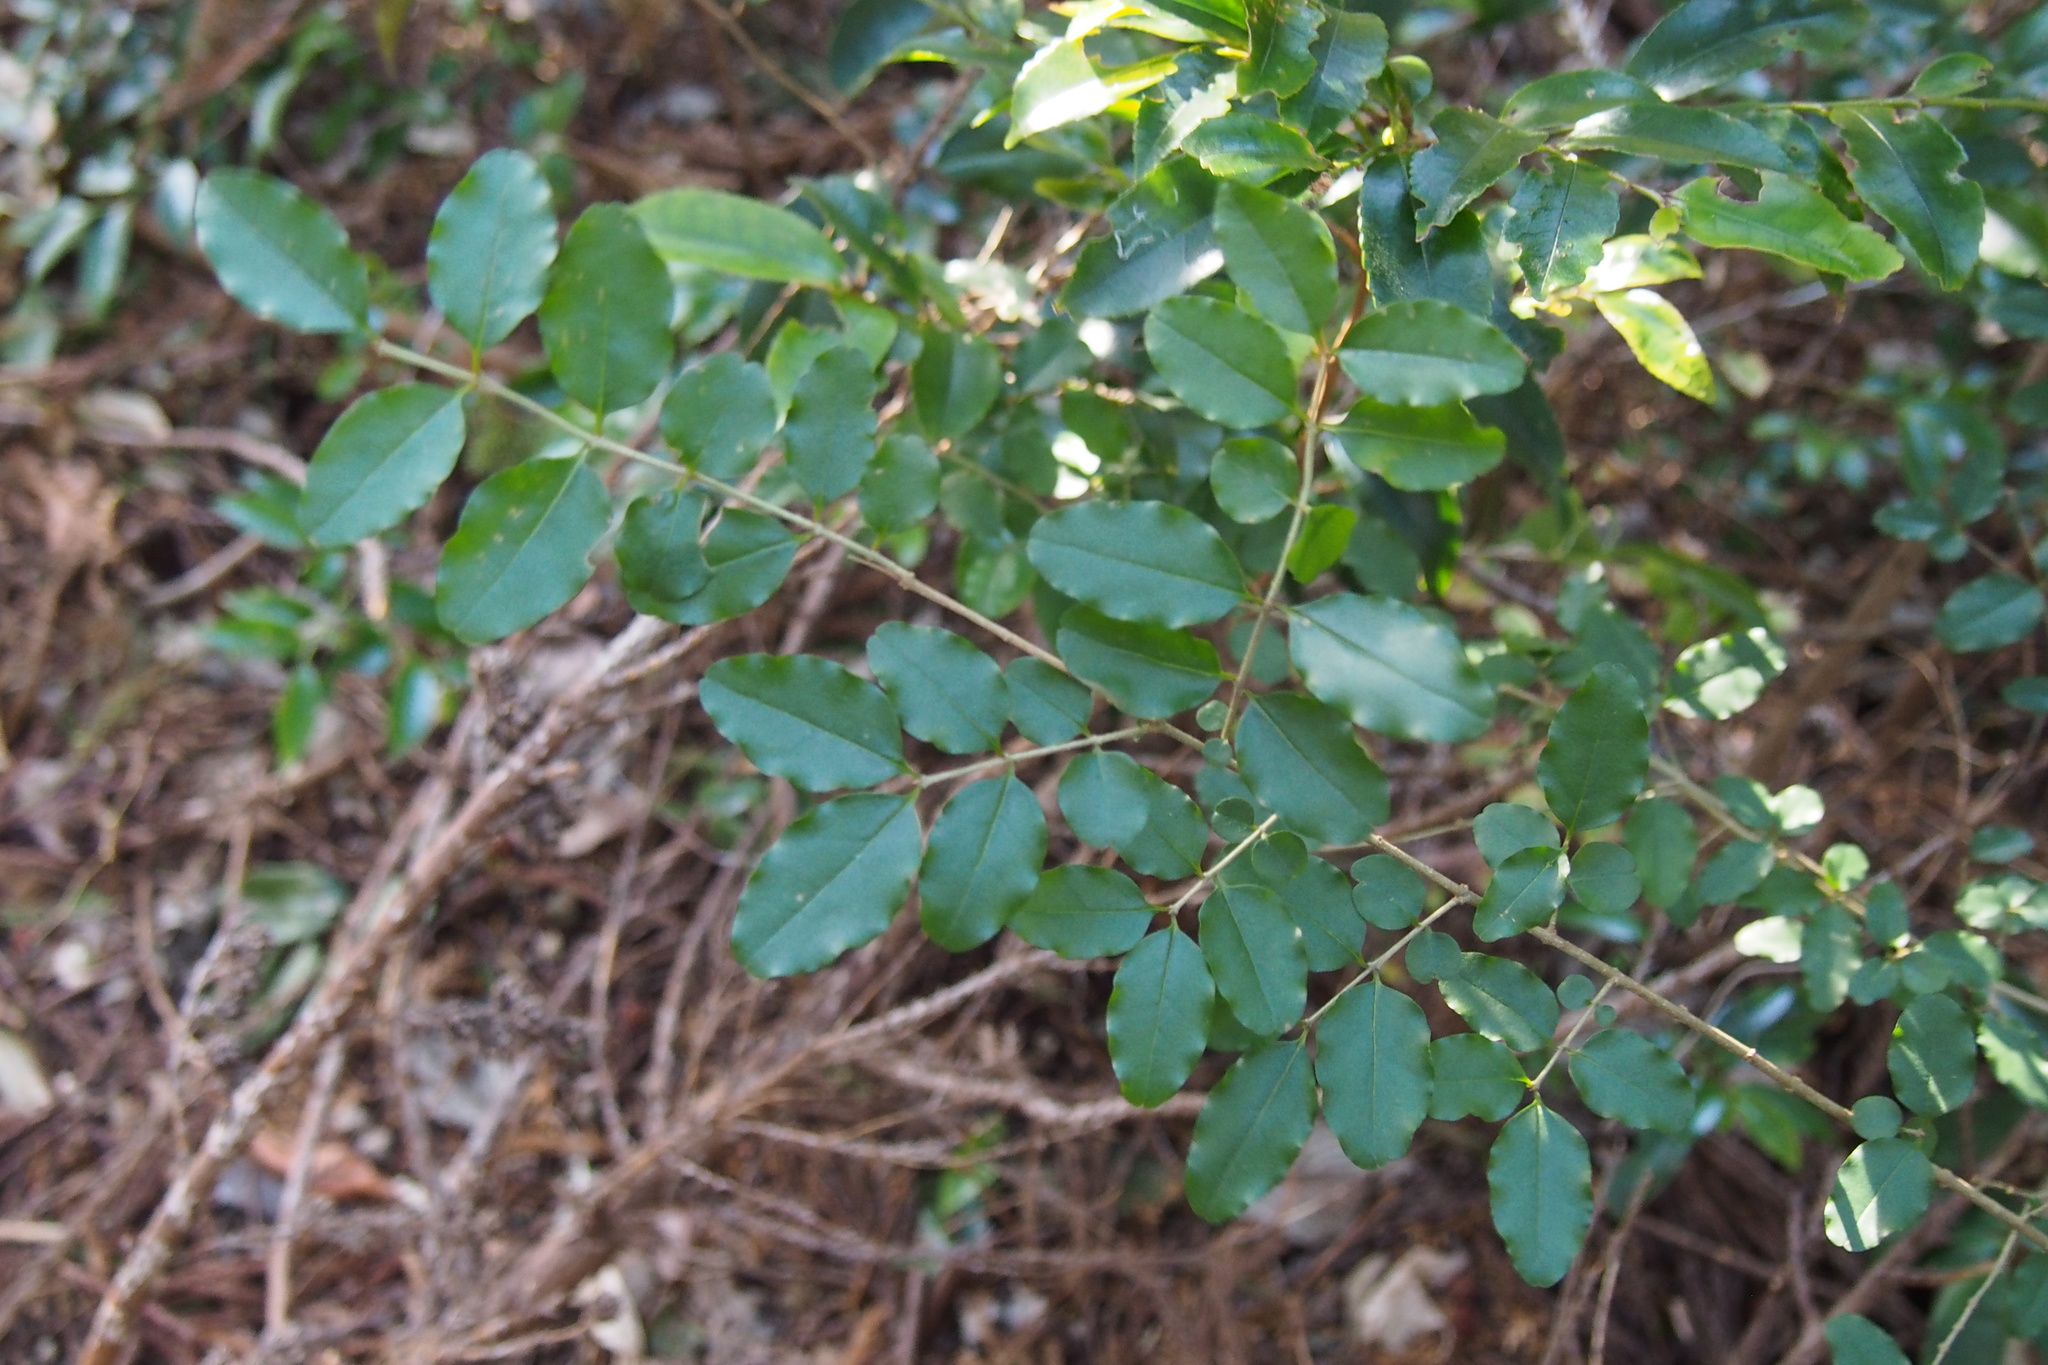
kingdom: Plantae
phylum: Tracheophyta
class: Magnoliopsida
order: Lamiales
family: Oleaceae
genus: Ligustrum
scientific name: Ligustrum obtusifolium
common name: Border privet
